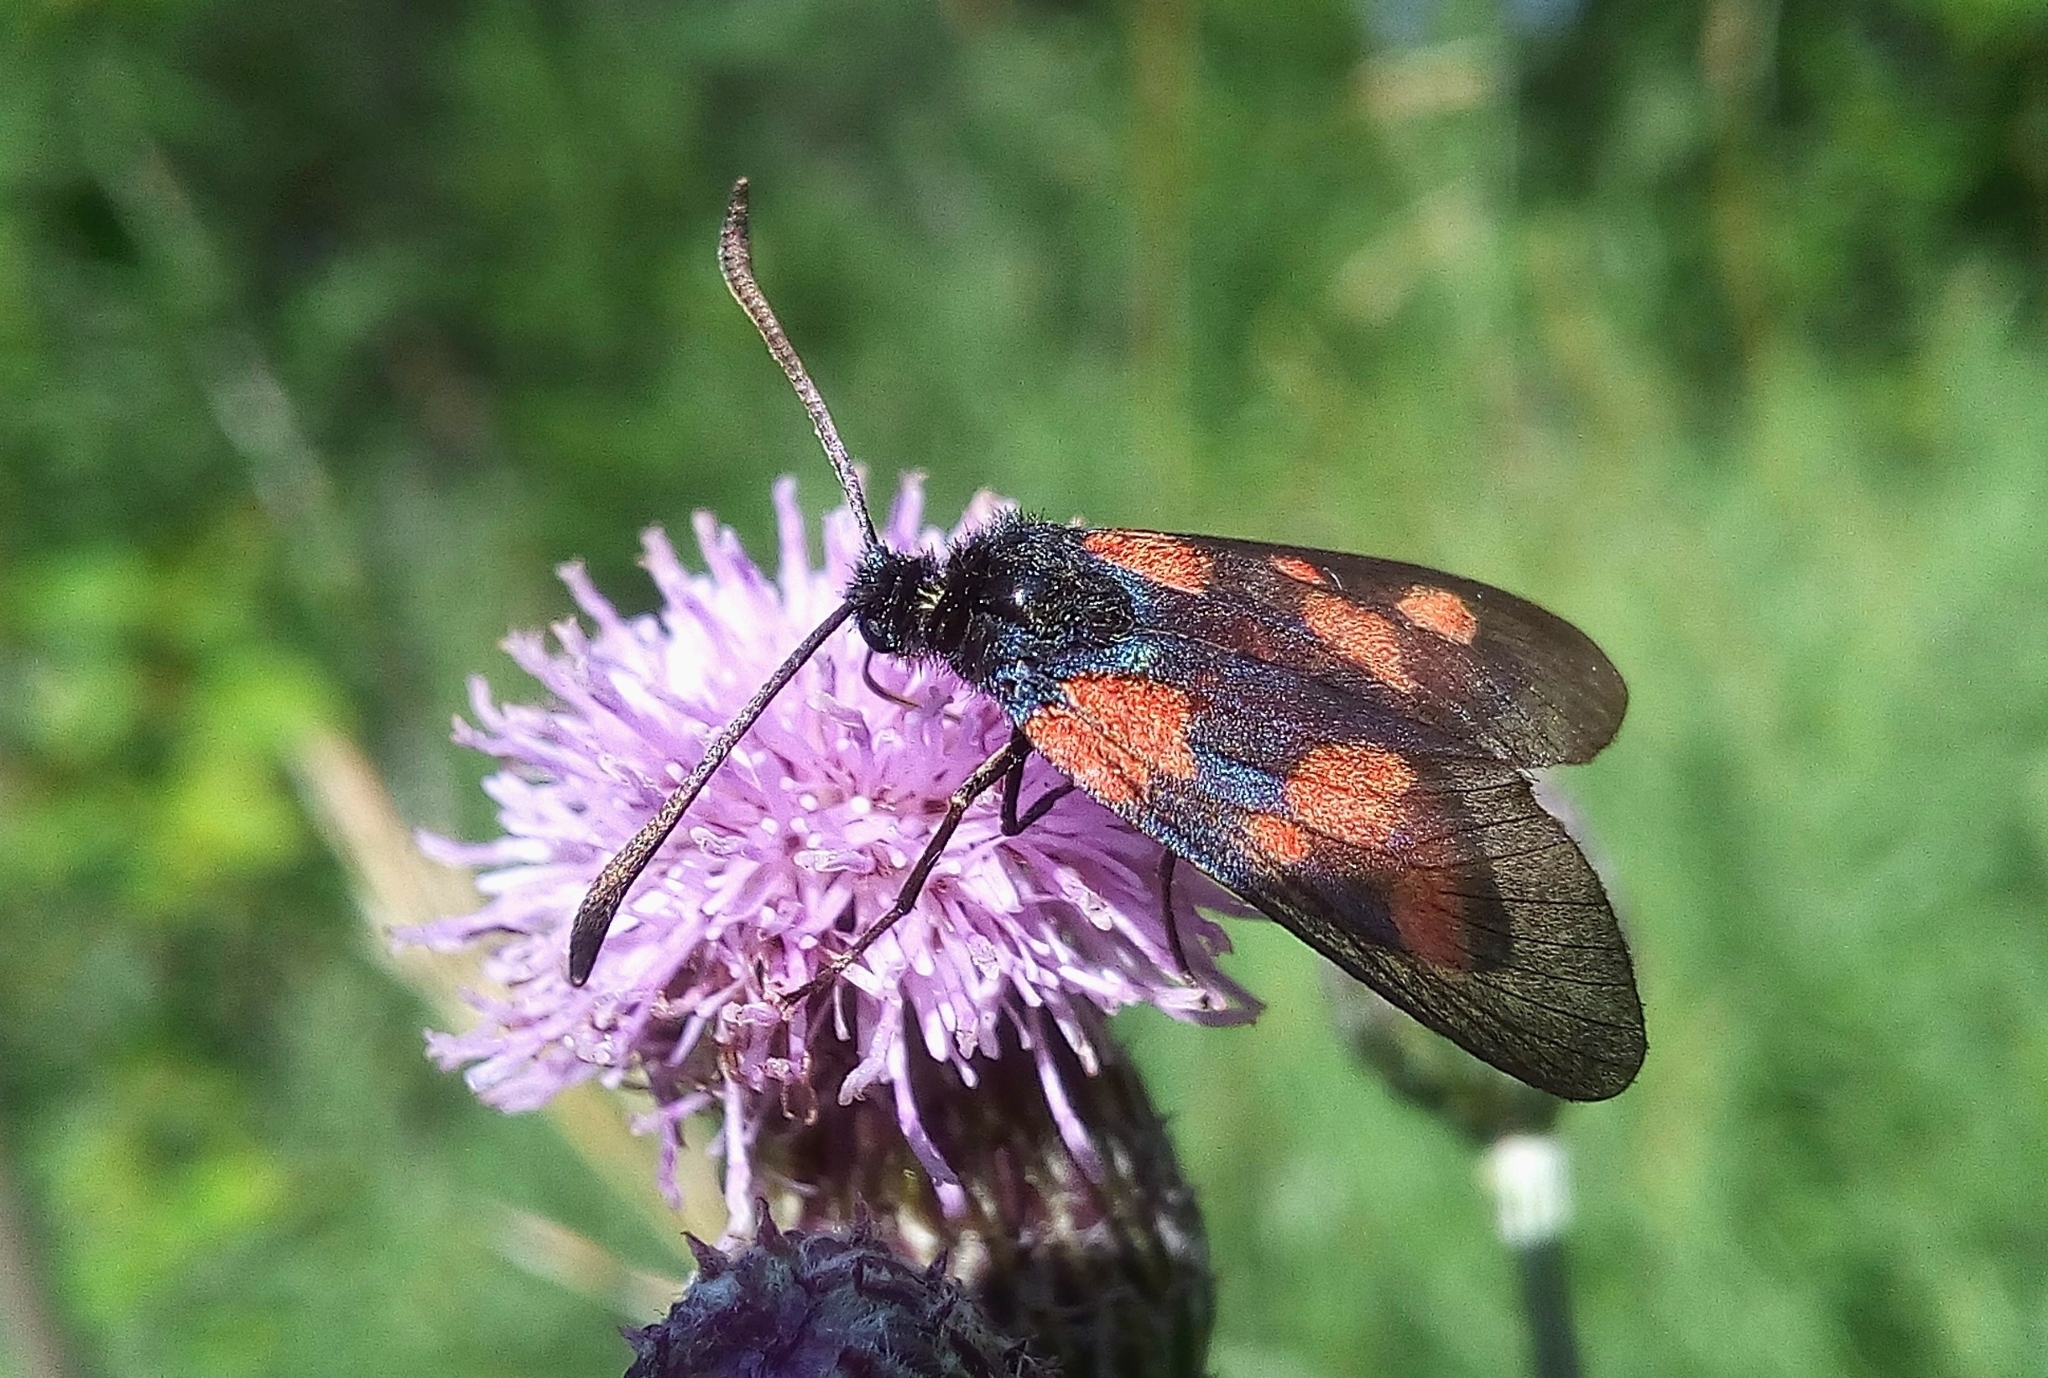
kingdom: Animalia
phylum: Arthropoda
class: Insecta
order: Lepidoptera
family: Zygaenidae
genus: Zygaena
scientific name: Zygaena viciae
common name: New forest burnet
